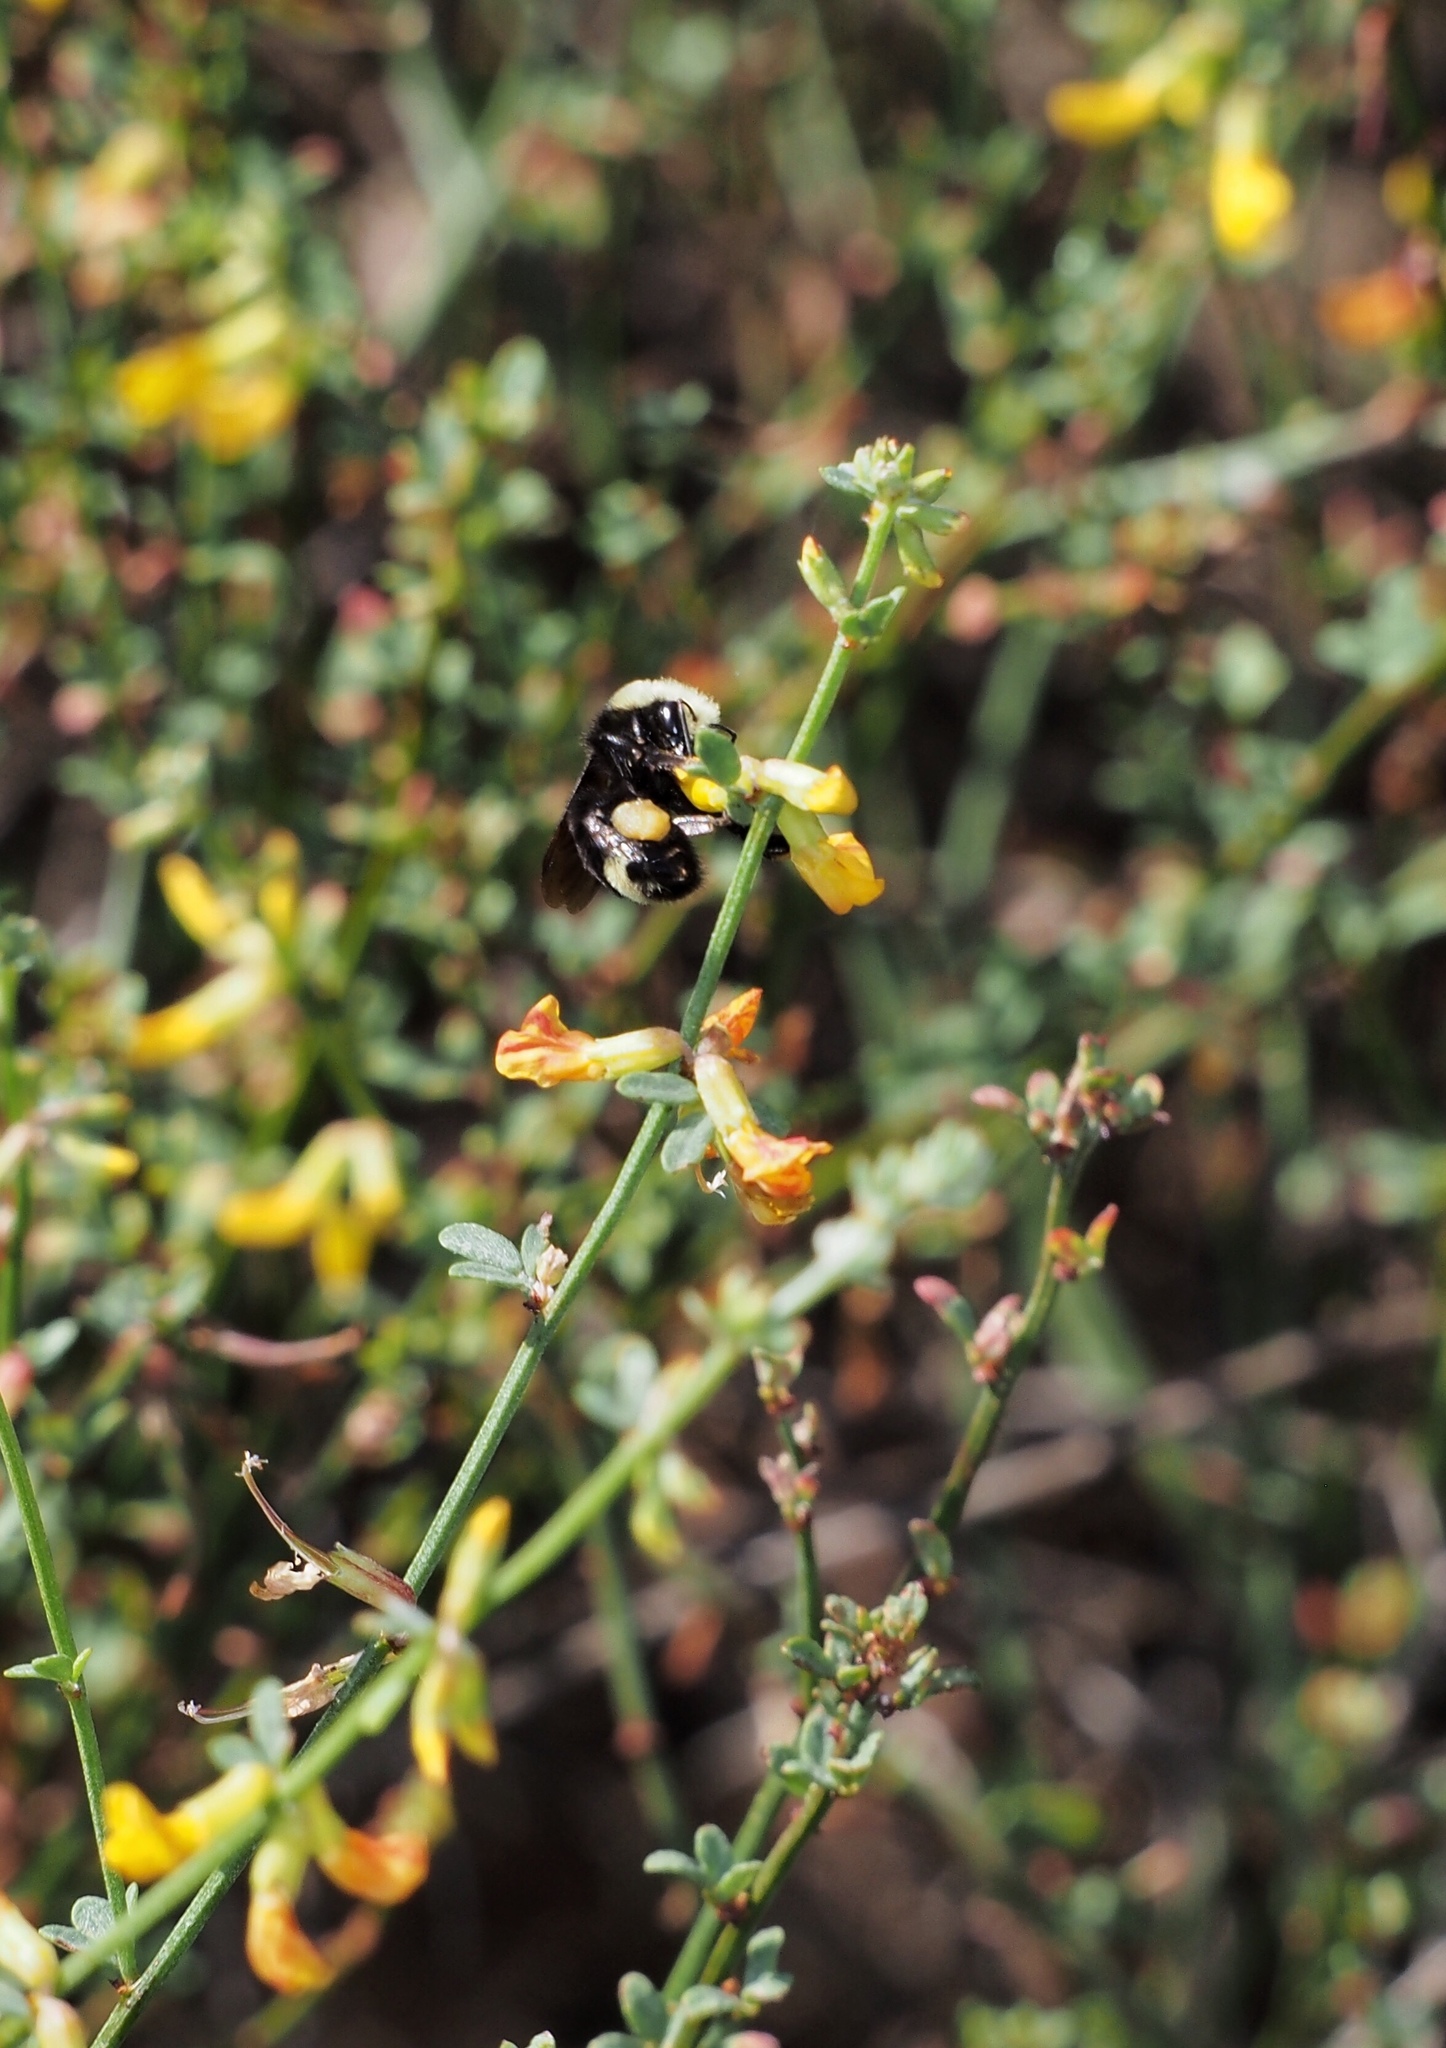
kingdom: Animalia
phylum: Arthropoda
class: Insecta
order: Hymenoptera
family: Apidae
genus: Bombus
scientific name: Bombus vosnesenskii
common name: Vosnesensky bumble bee
